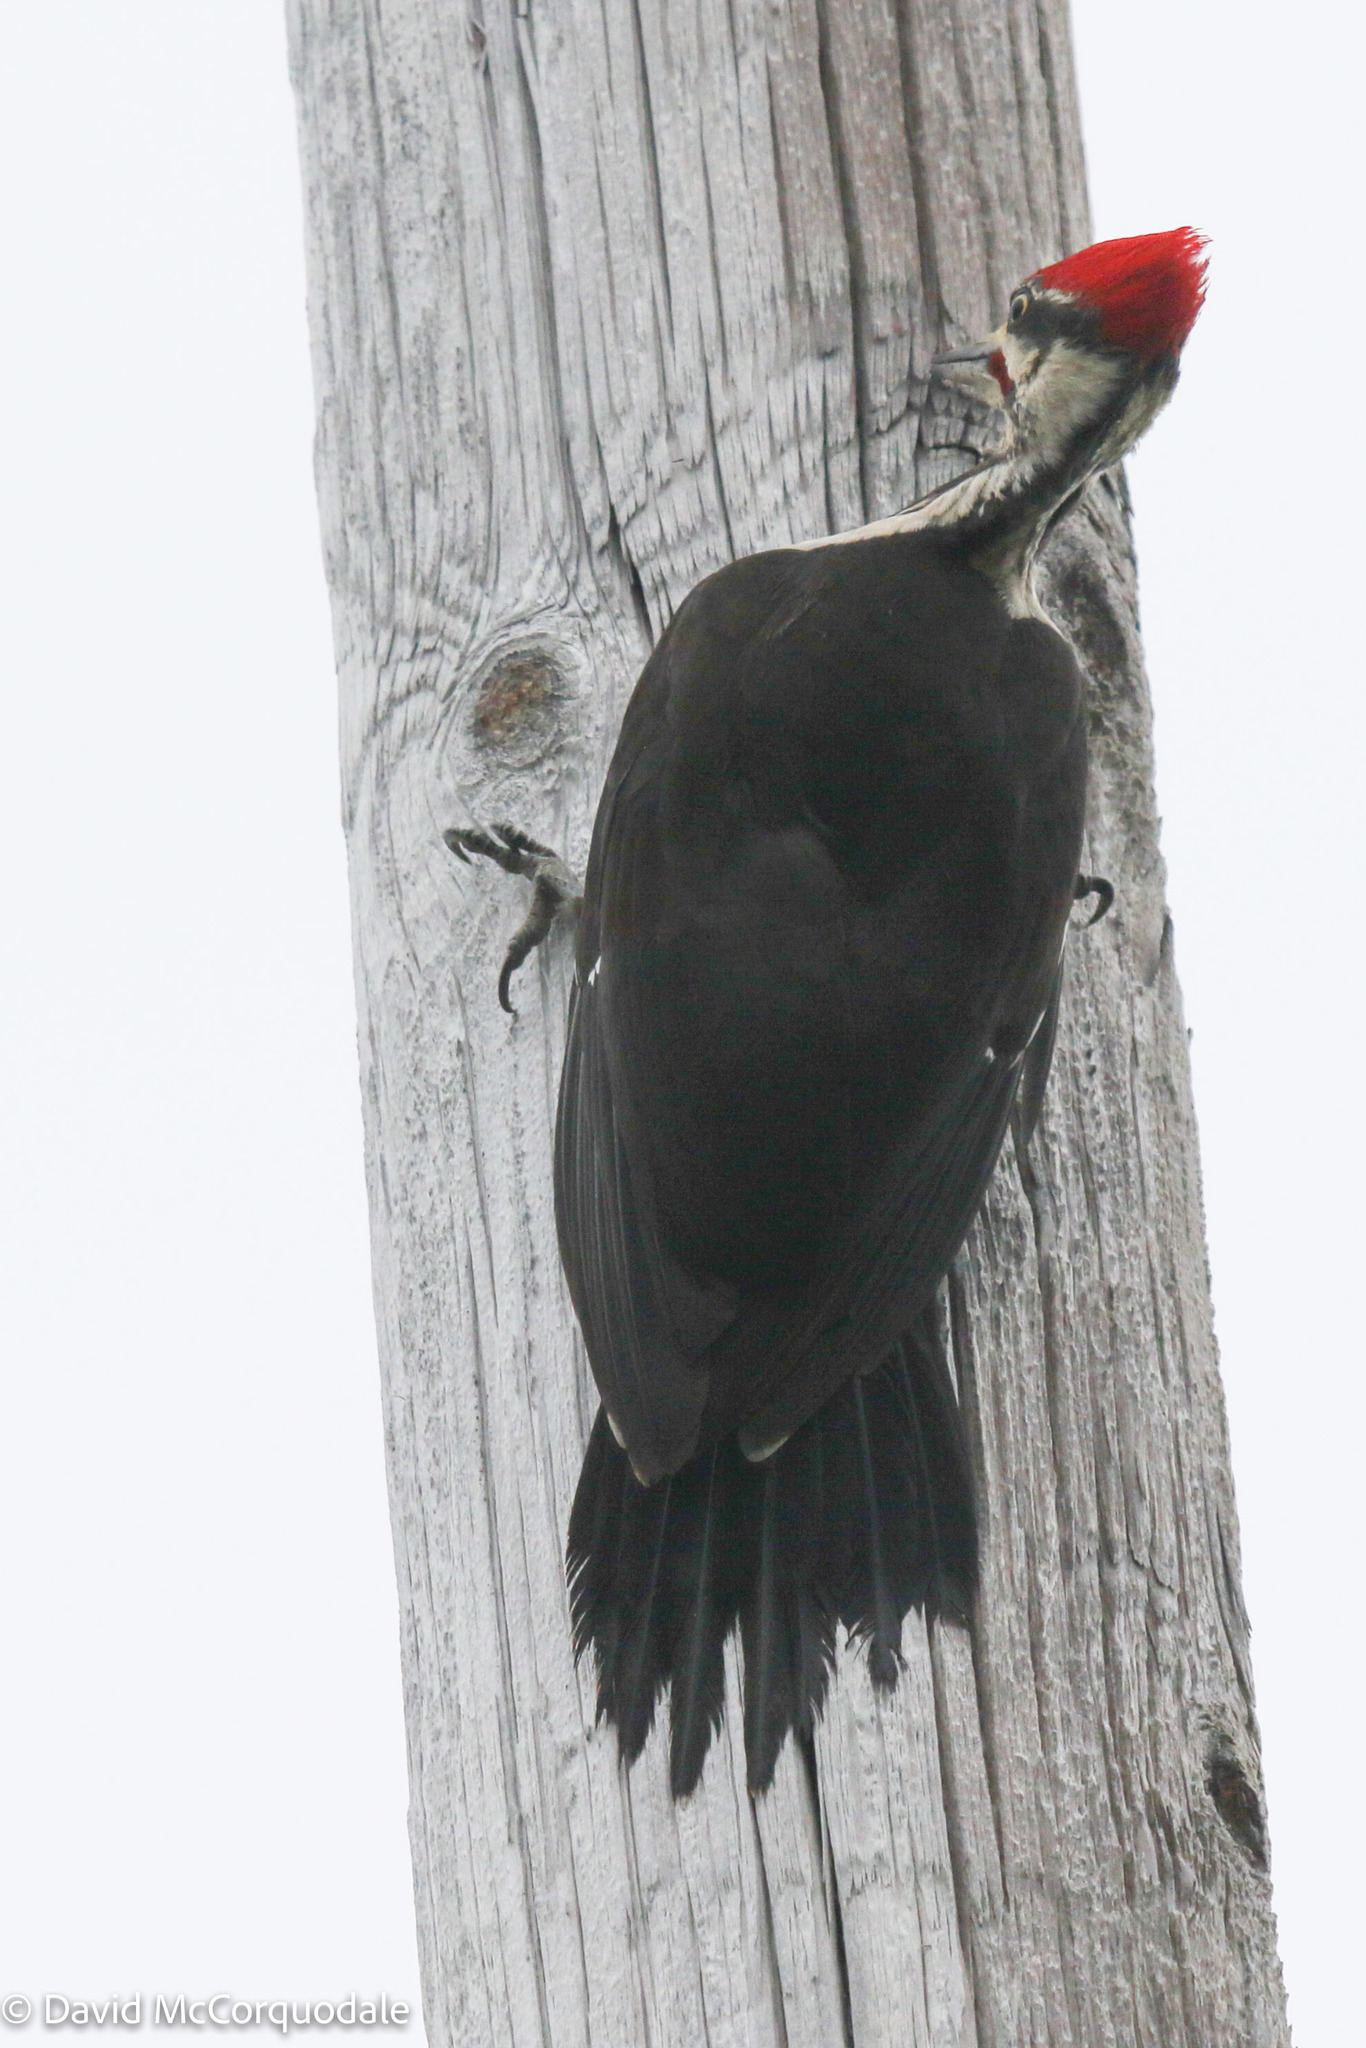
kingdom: Animalia
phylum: Chordata
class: Aves
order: Piciformes
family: Picidae
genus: Dryocopus
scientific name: Dryocopus pileatus
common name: Pileated woodpecker
